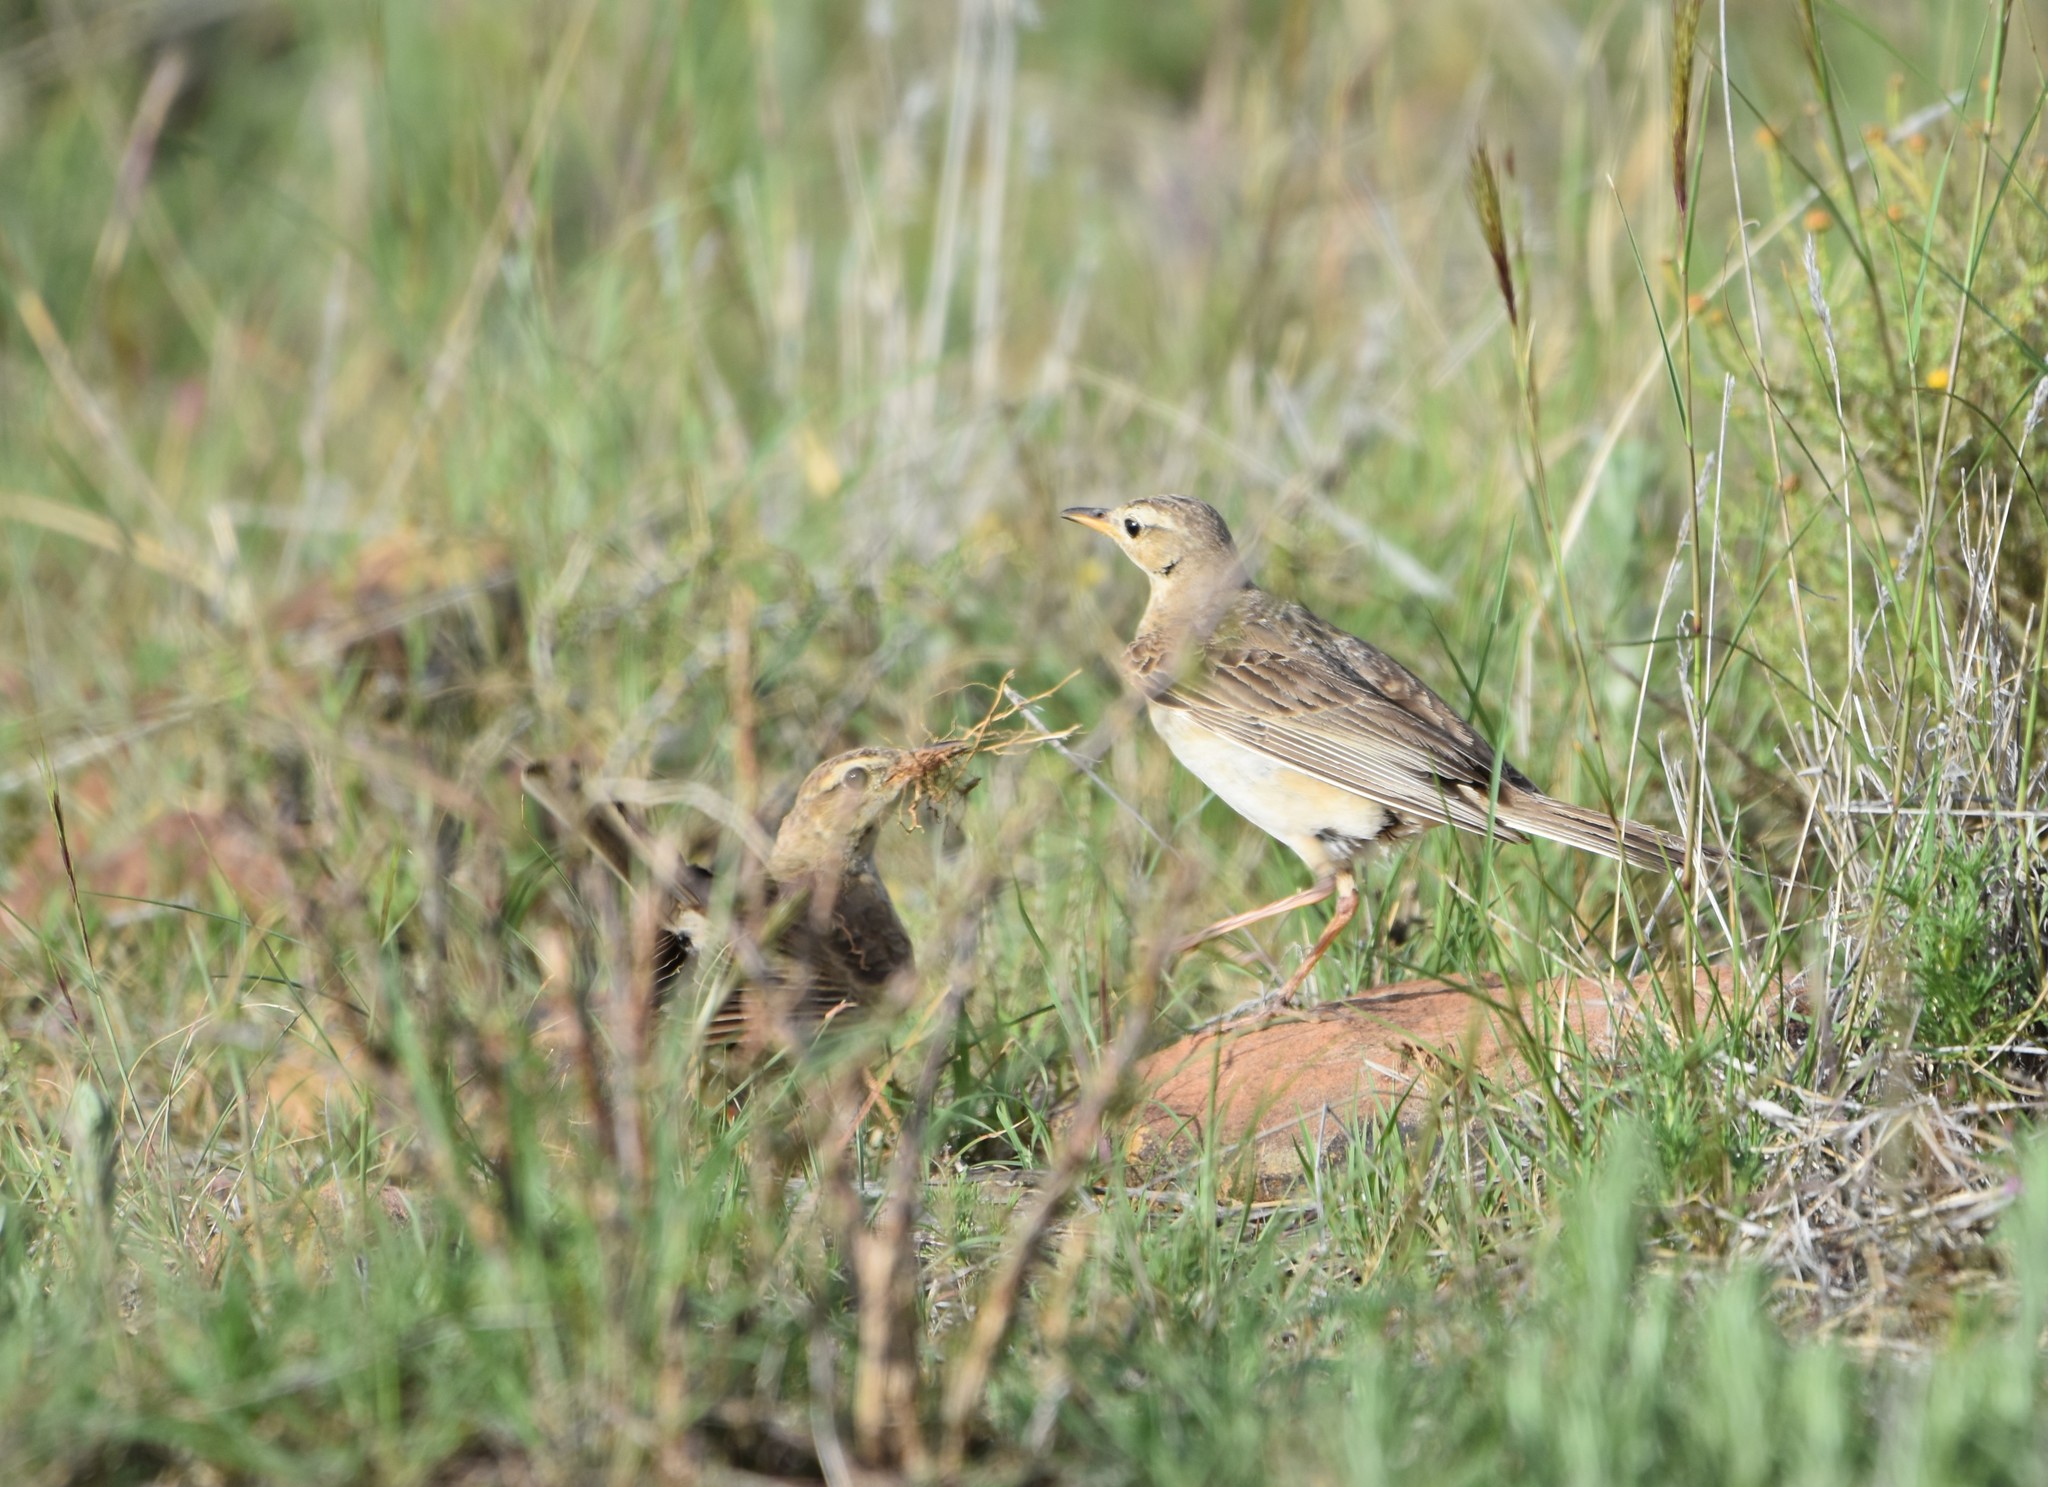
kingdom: Animalia
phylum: Chordata
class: Aves
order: Passeriformes
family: Motacillidae
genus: Anthus
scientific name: Anthus leucophrys
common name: Plain-backed pipit
